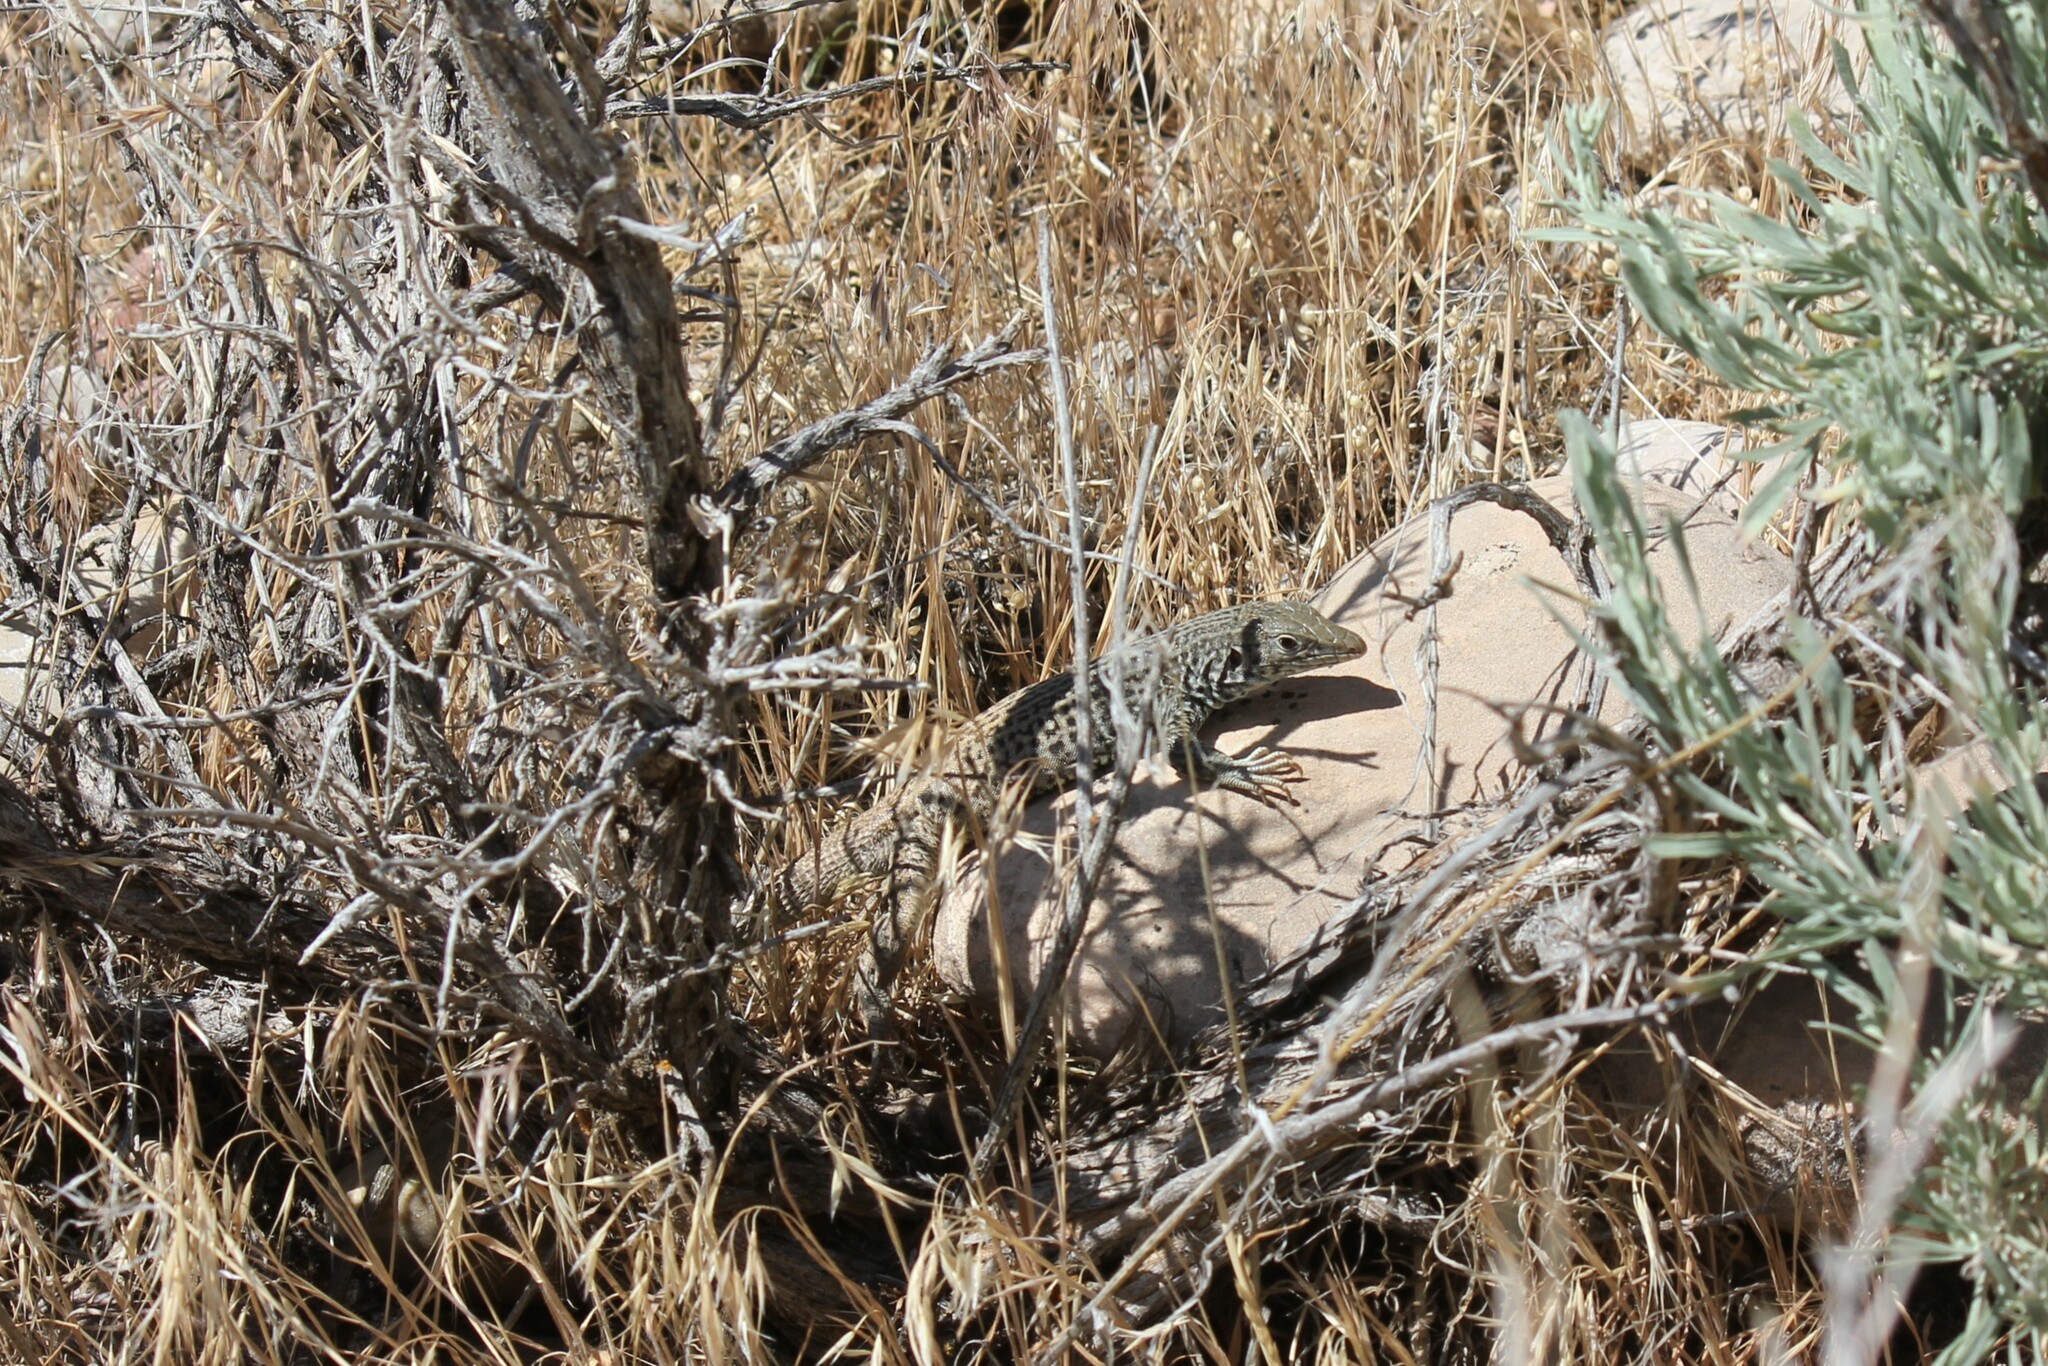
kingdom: Animalia
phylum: Chordata
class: Squamata
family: Teiidae
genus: Aspidoscelis
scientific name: Aspidoscelis tigris
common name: Tiger whiptail
